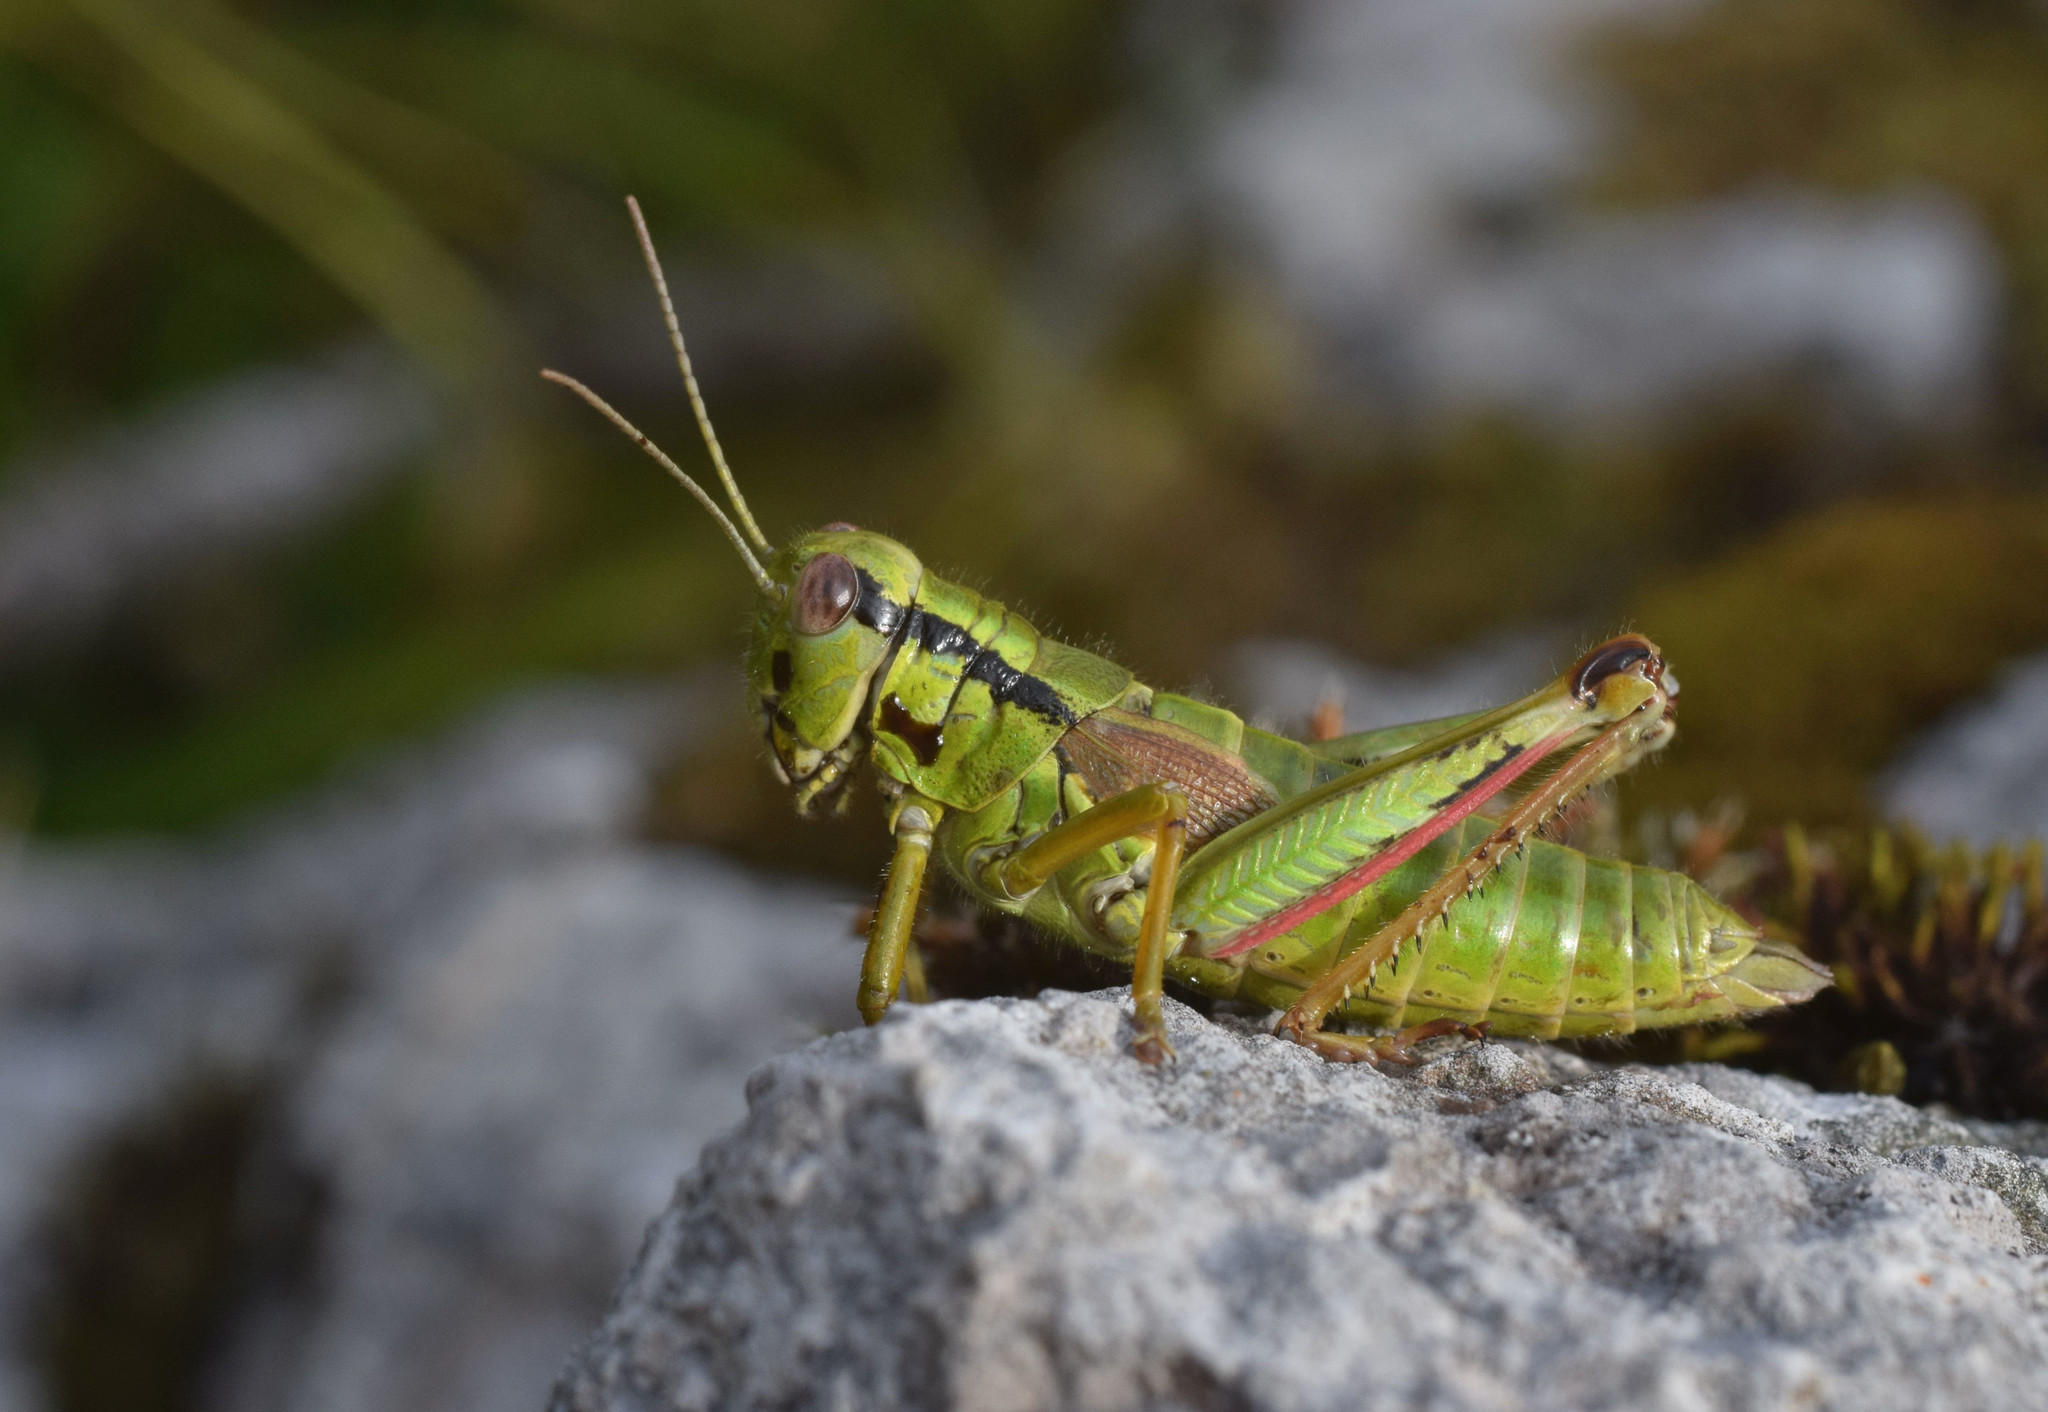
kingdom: Animalia
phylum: Arthropoda
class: Insecta
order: Orthoptera
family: Acrididae
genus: Miramella
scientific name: Miramella alpina
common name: Green mountain grasshopper
